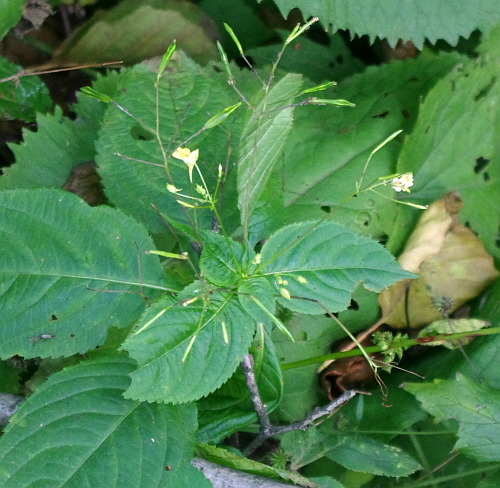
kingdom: Plantae
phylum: Tracheophyta
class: Magnoliopsida
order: Ericales
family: Balsaminaceae
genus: Impatiens
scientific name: Impatiens parviflora
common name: Small balsam
